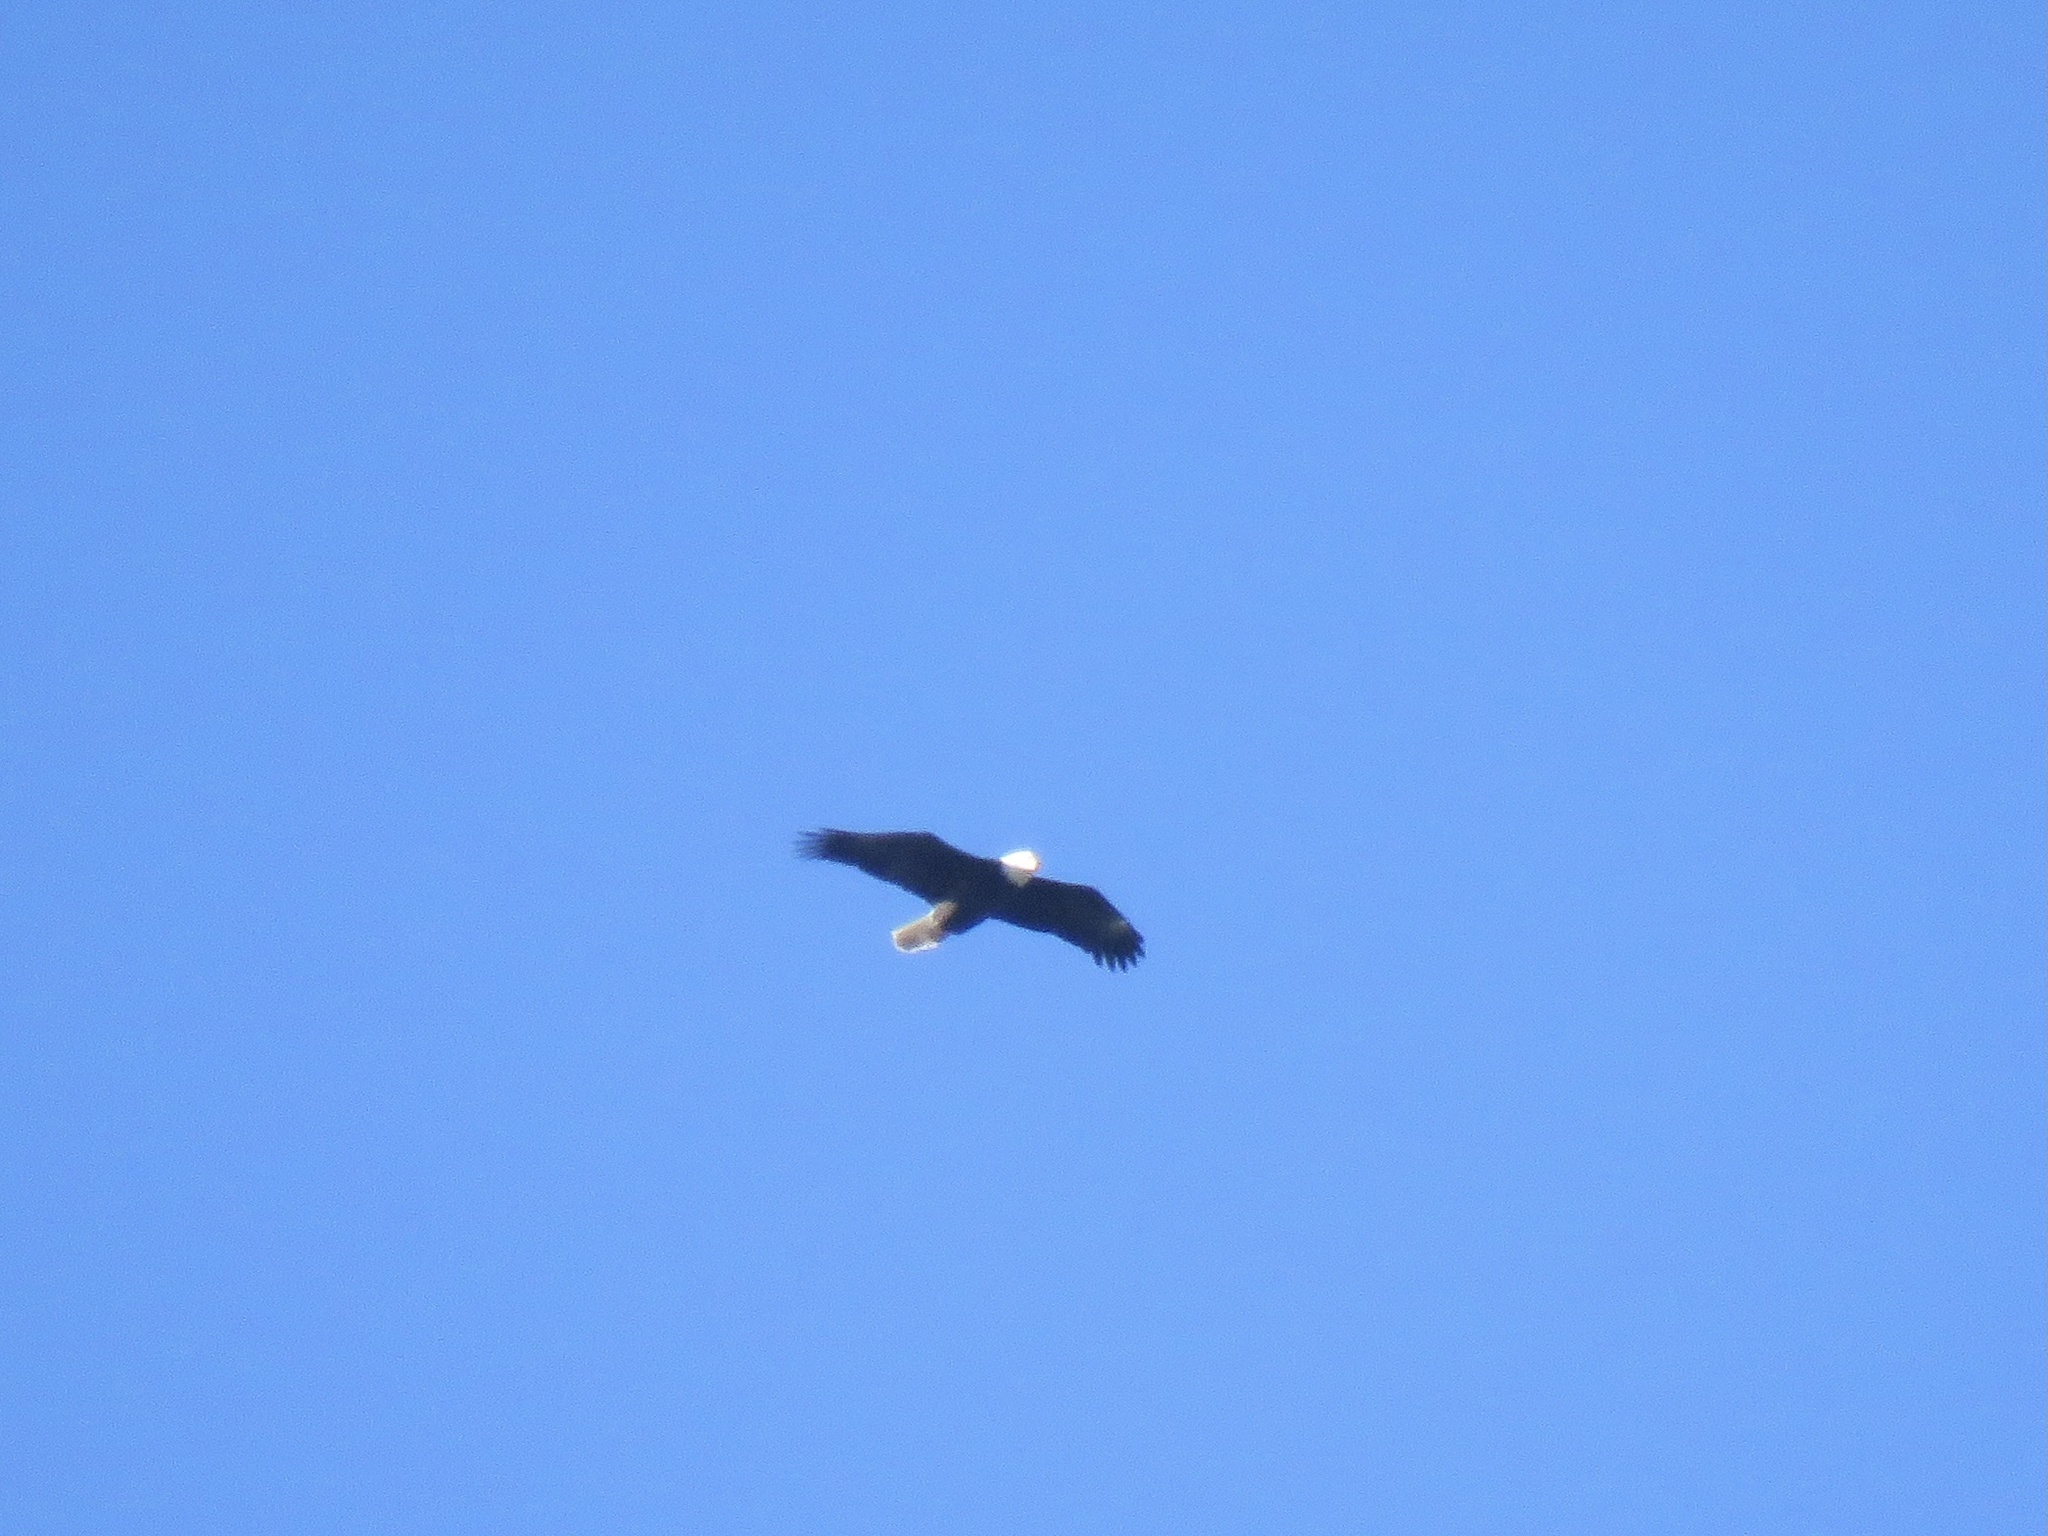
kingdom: Animalia
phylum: Chordata
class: Aves
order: Accipitriformes
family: Accipitridae
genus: Haliaeetus
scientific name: Haliaeetus leucocephalus
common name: Bald eagle
